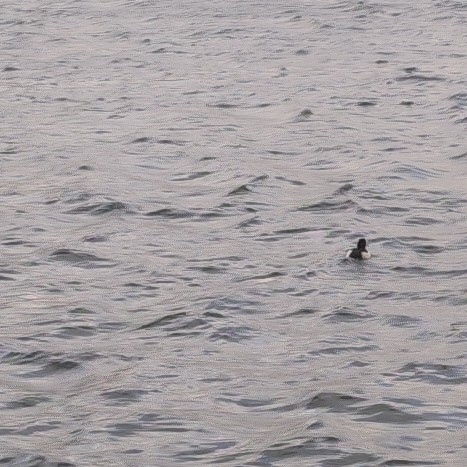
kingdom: Animalia
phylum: Chordata
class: Aves
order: Anseriformes
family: Anatidae
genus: Aythya
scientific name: Aythya fuligula
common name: Tufted duck
